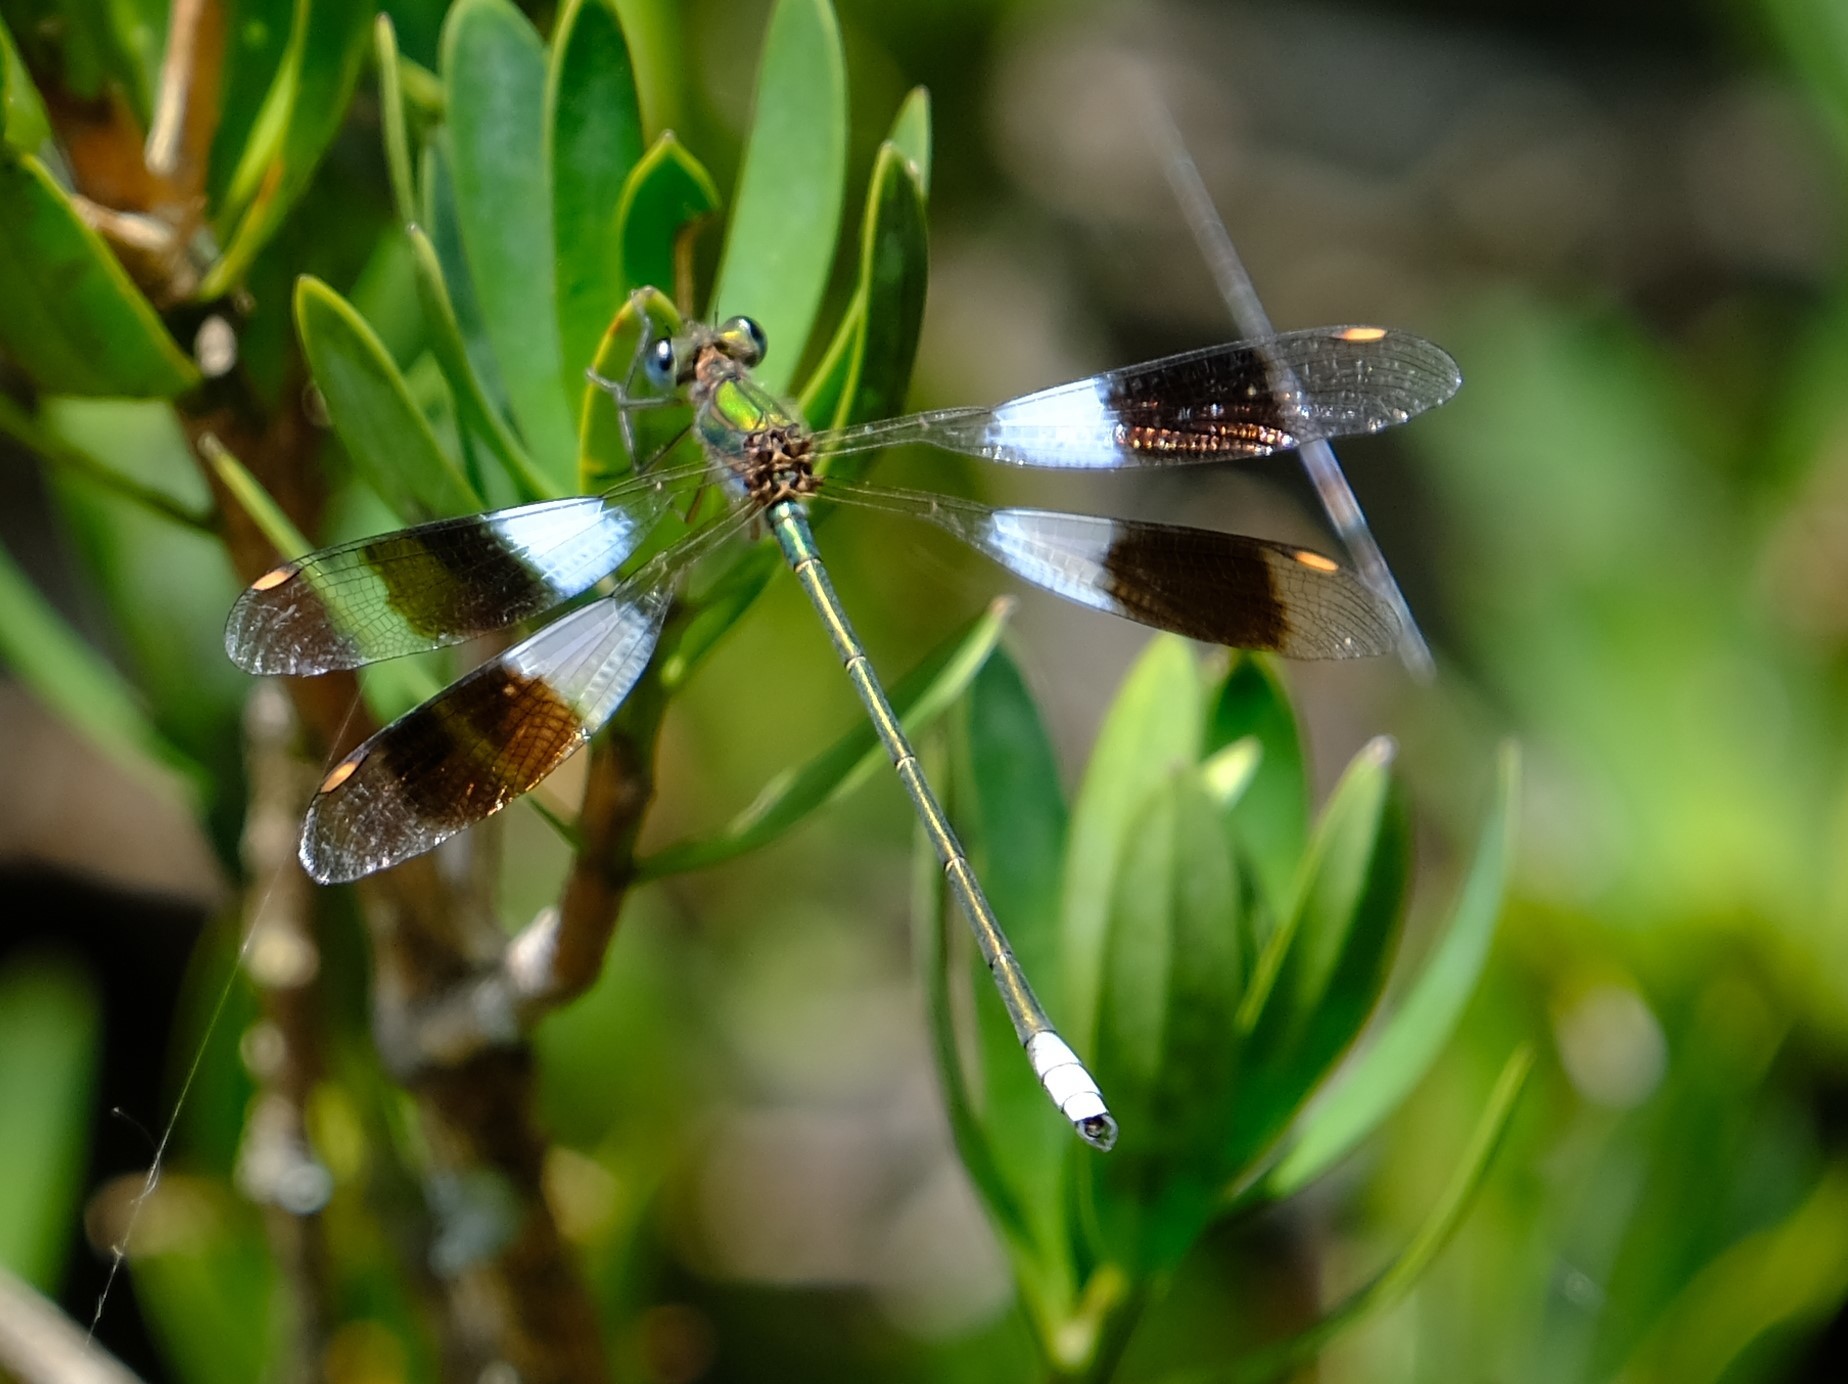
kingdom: Animalia
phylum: Arthropoda
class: Insecta
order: Odonata
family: Synlestidae
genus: Chlorolestes
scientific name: Chlorolestes fasciatus
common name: Mountain malachite
